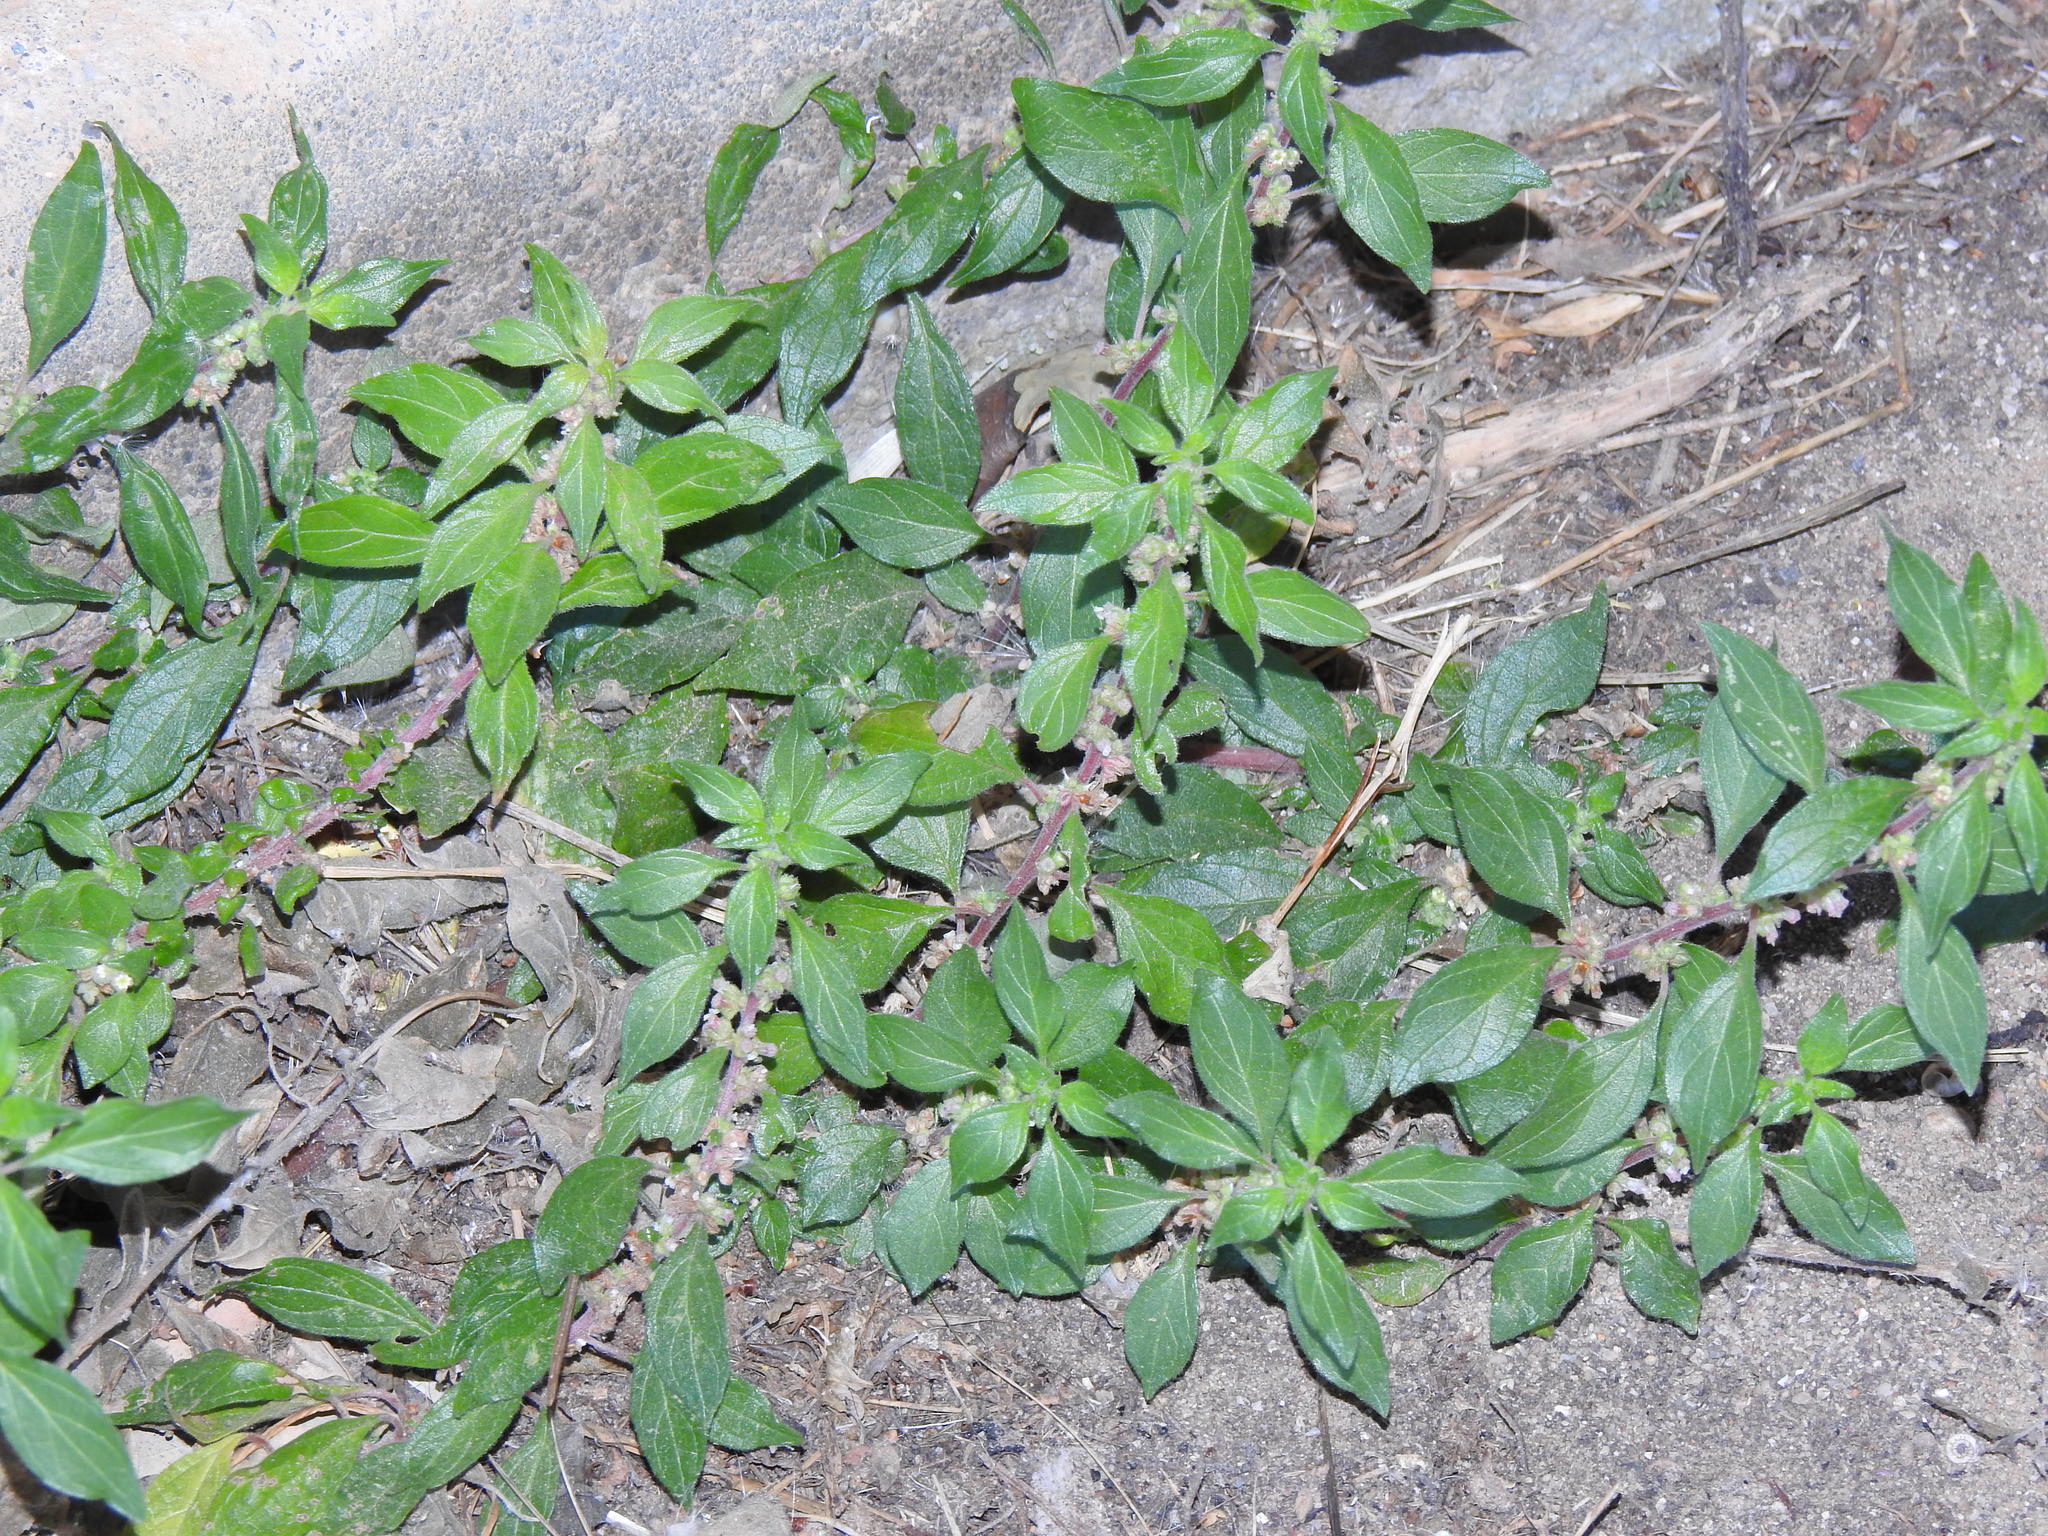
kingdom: Plantae
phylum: Tracheophyta
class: Magnoliopsida
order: Rosales
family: Urticaceae
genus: Parietaria
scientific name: Parietaria judaica
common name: Pellitory-of-the-wall
